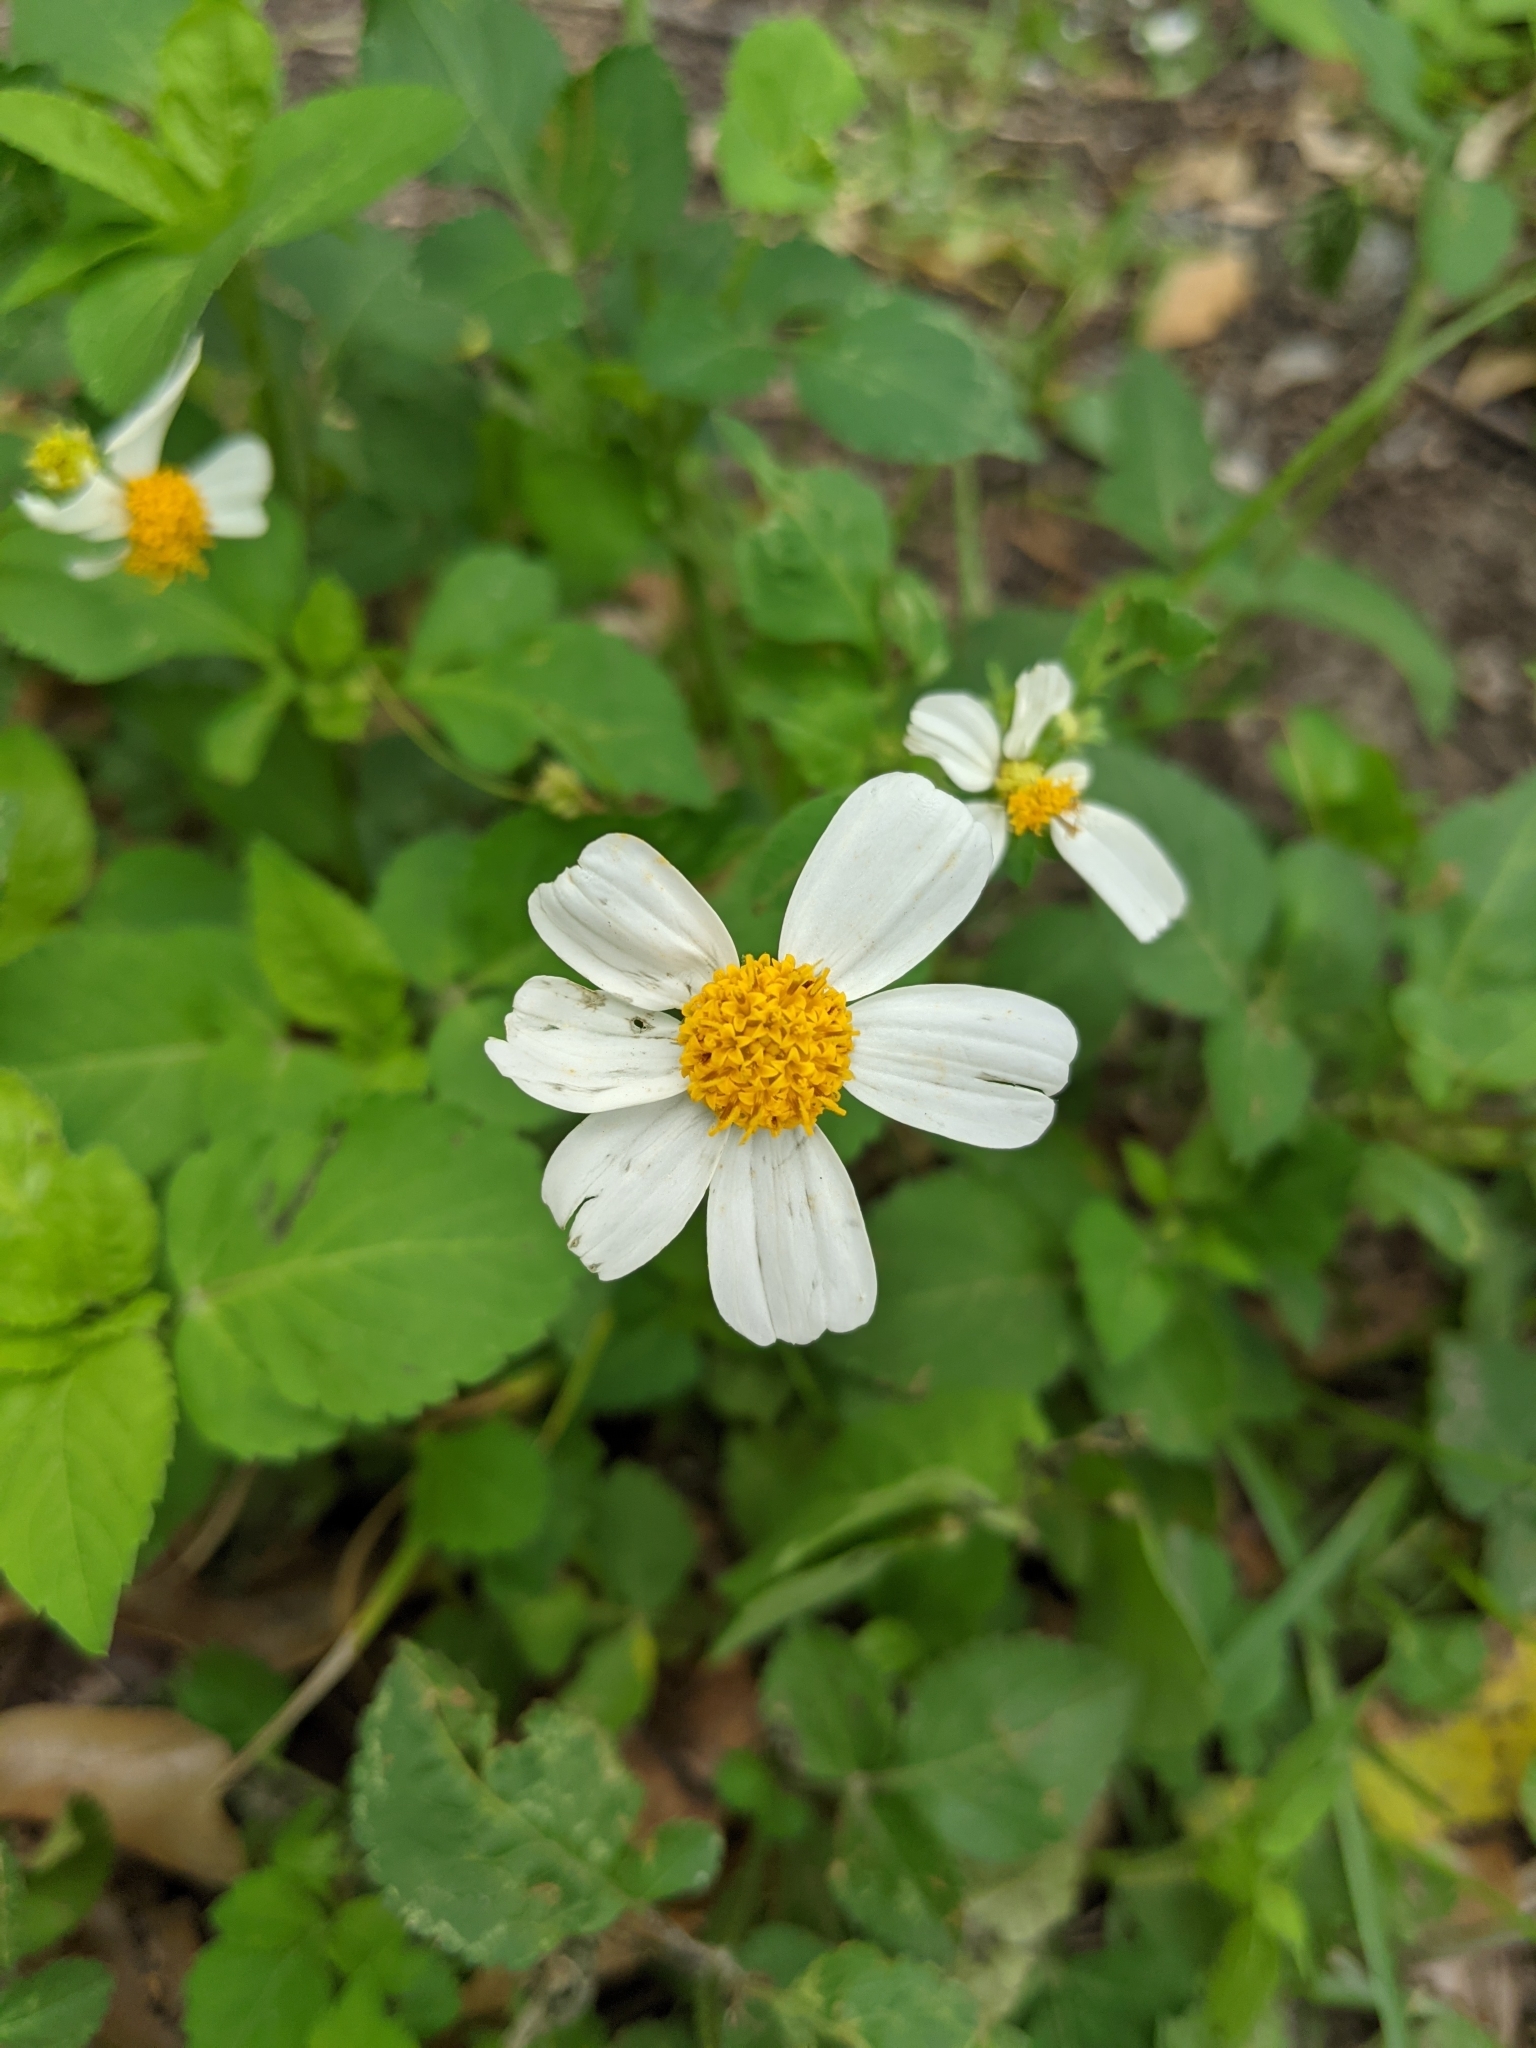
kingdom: Plantae
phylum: Tracheophyta
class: Magnoliopsida
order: Asterales
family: Asteraceae
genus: Bidens
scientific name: Bidens alba
